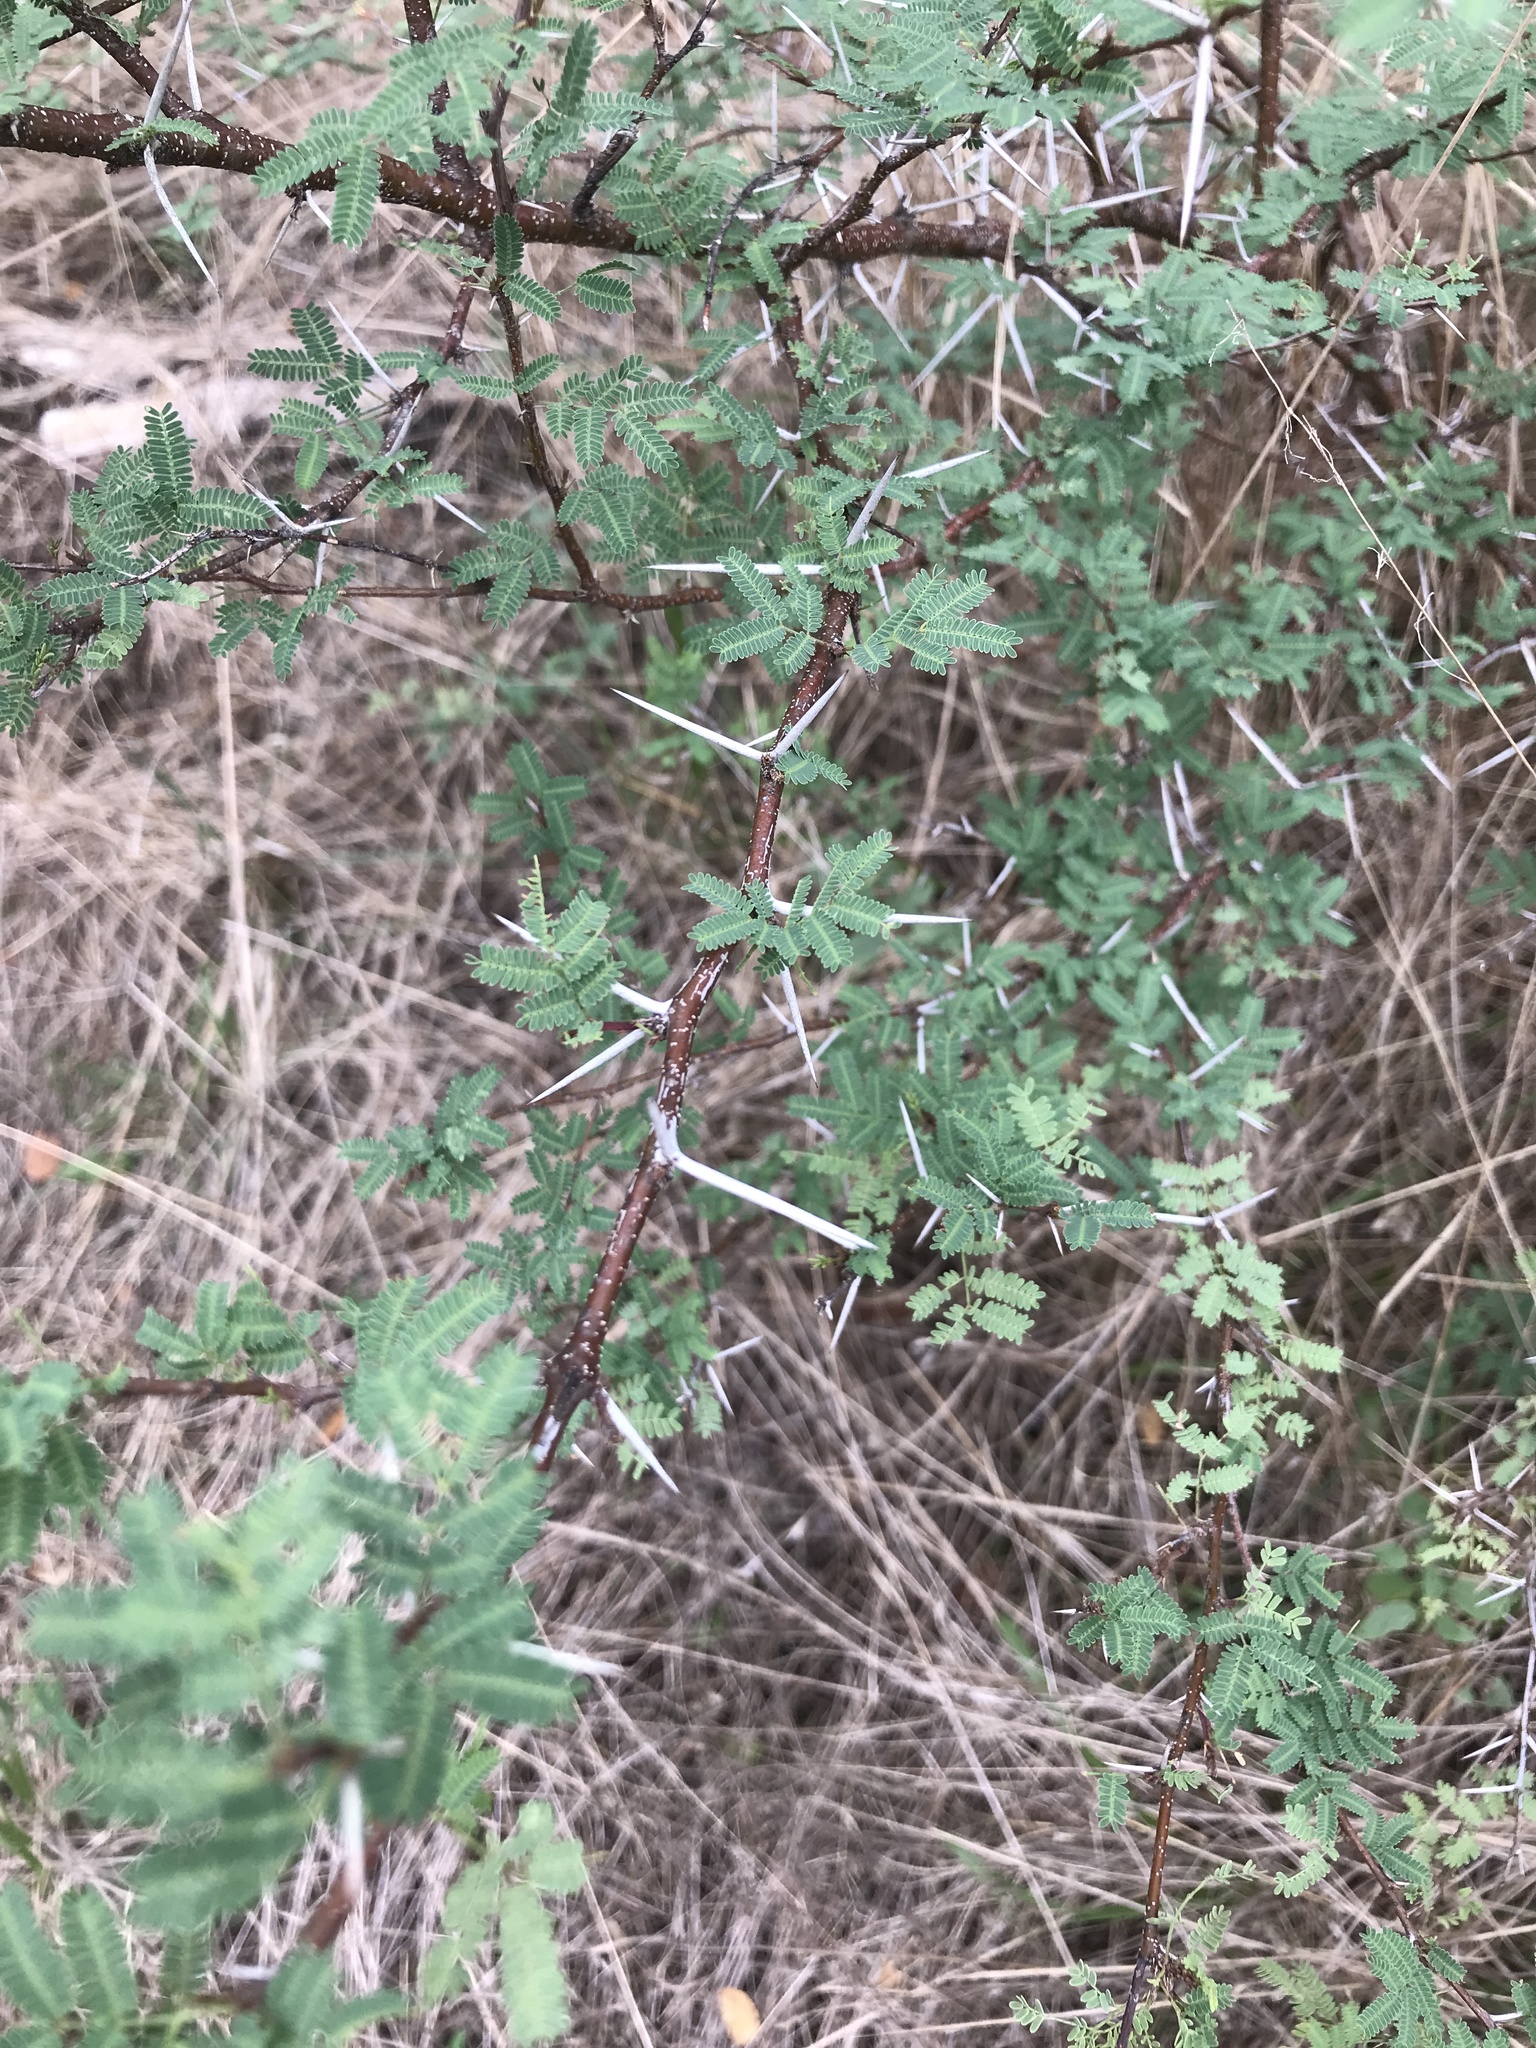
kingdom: Plantae
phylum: Tracheophyta
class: Magnoliopsida
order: Fabales
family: Fabaceae
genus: Vachellia
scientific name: Vachellia farnesiana
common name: Sweet acacia
